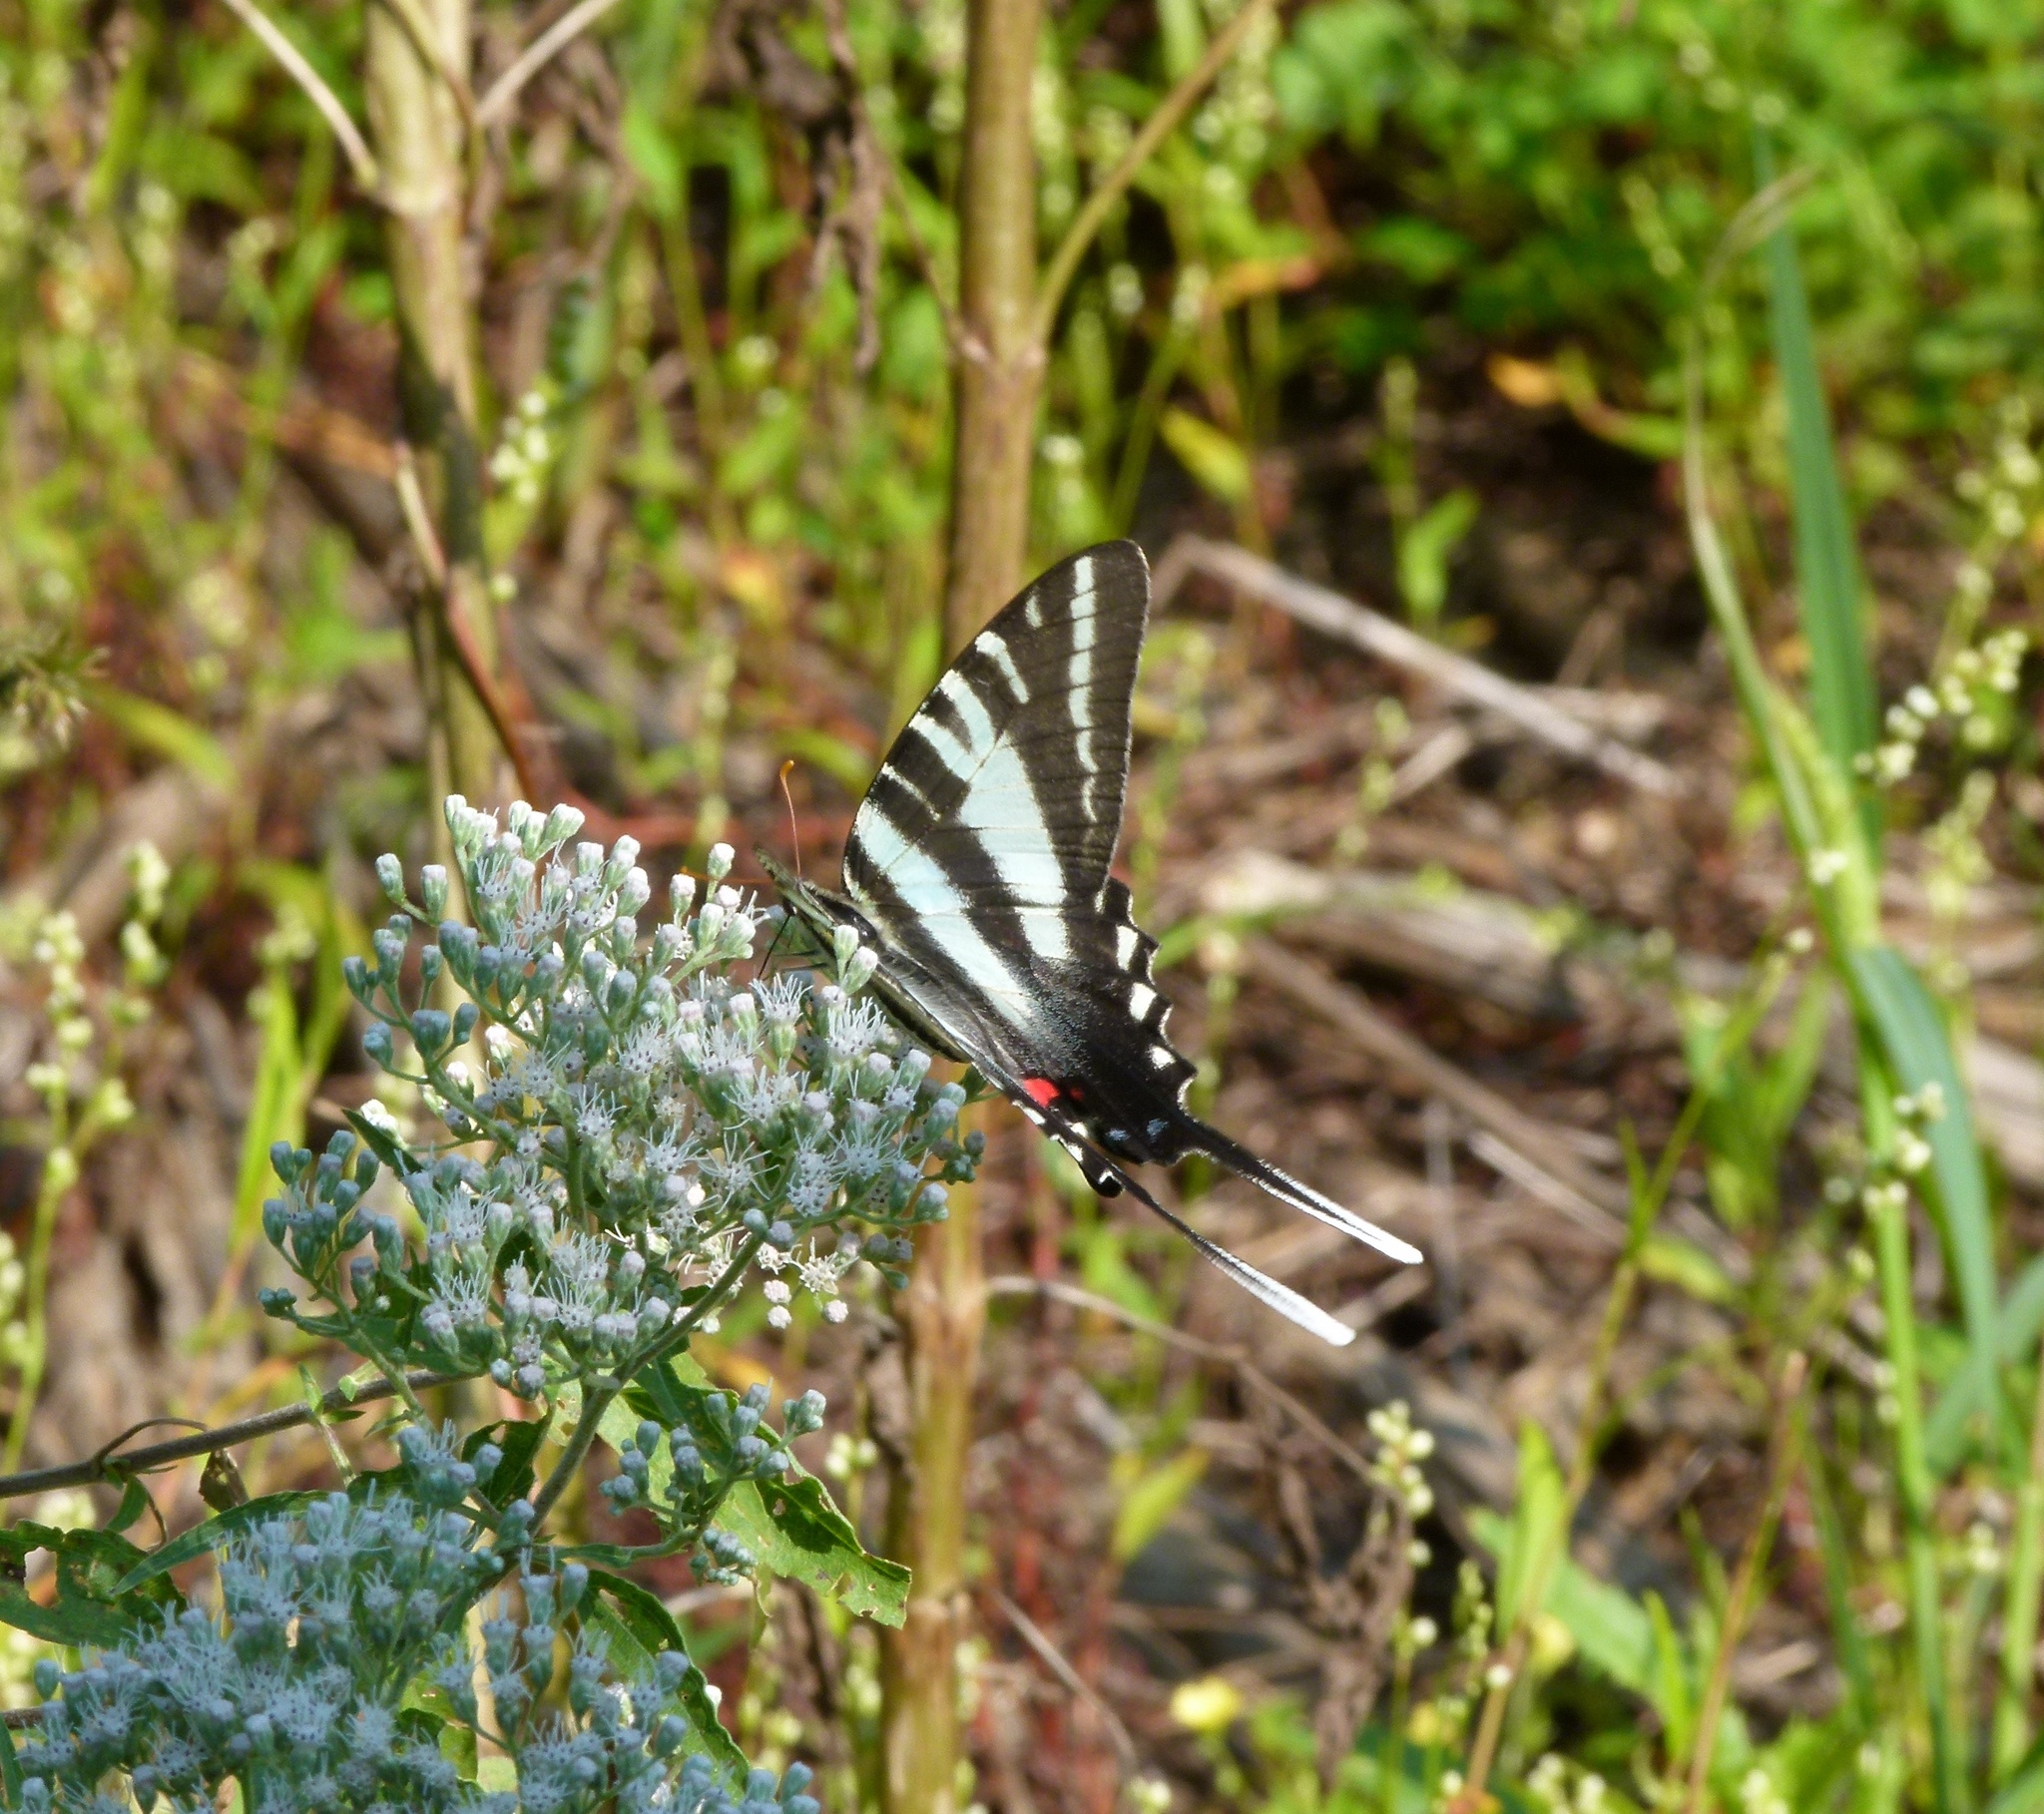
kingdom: Animalia
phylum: Arthropoda
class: Insecta
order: Lepidoptera
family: Papilionidae
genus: Protographium
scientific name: Protographium marcellus
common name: Zebra swallowtail
